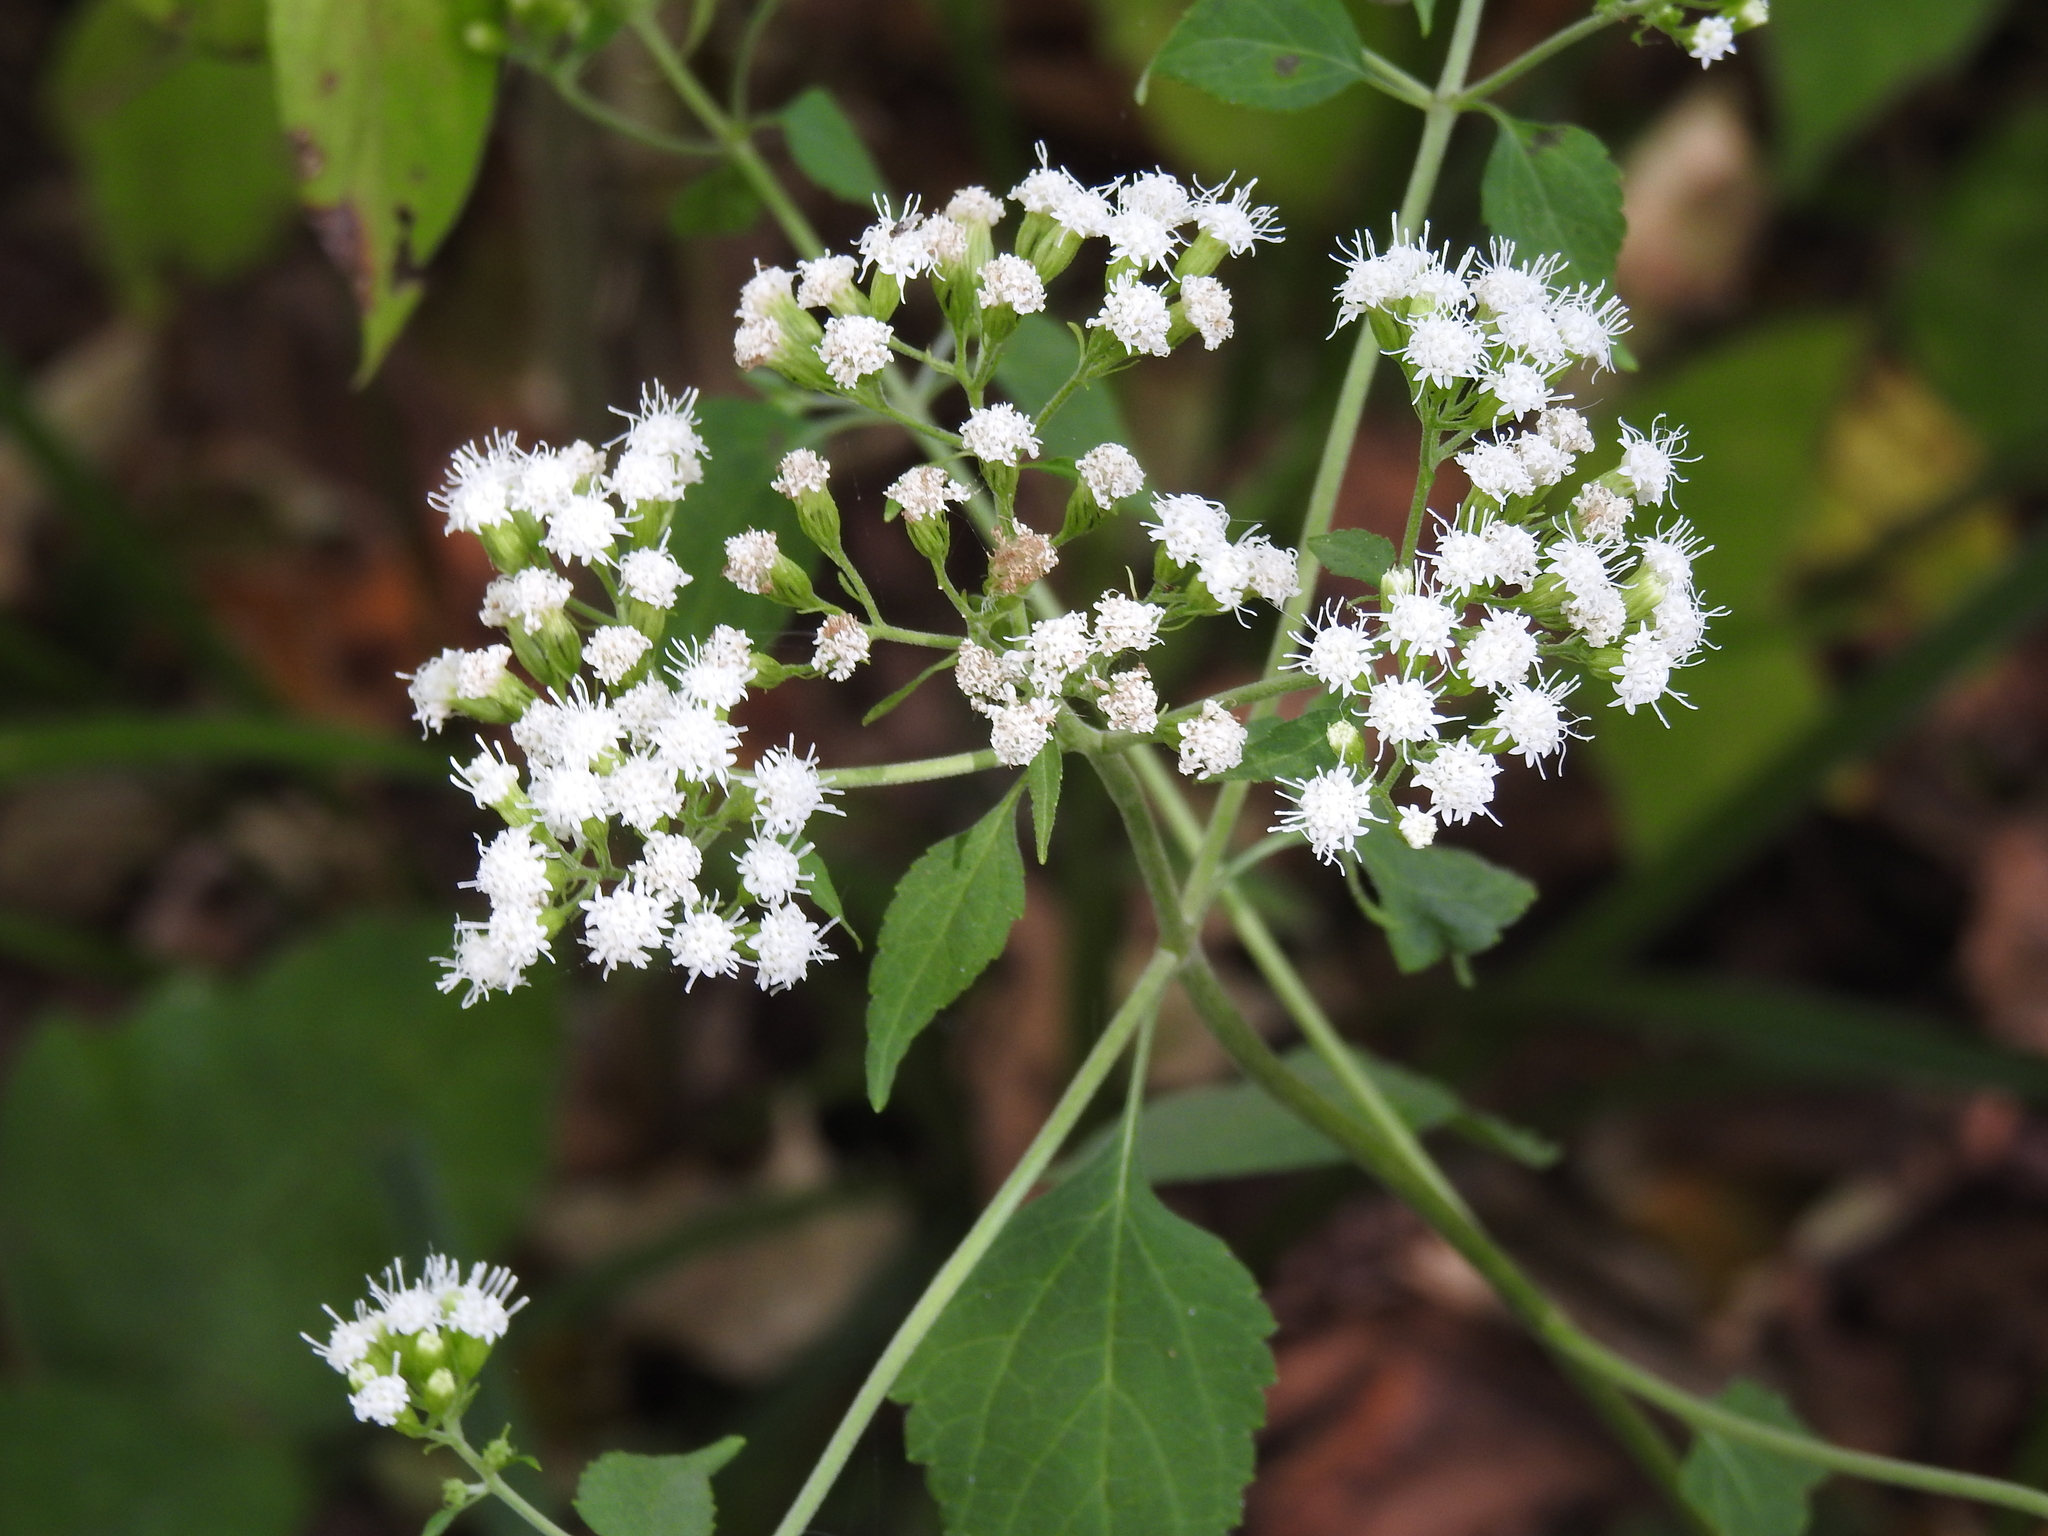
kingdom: Plantae
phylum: Tracheophyta
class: Magnoliopsida
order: Asterales
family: Asteraceae
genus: Ageratina
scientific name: Ageratina altissima
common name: White snakeroot
